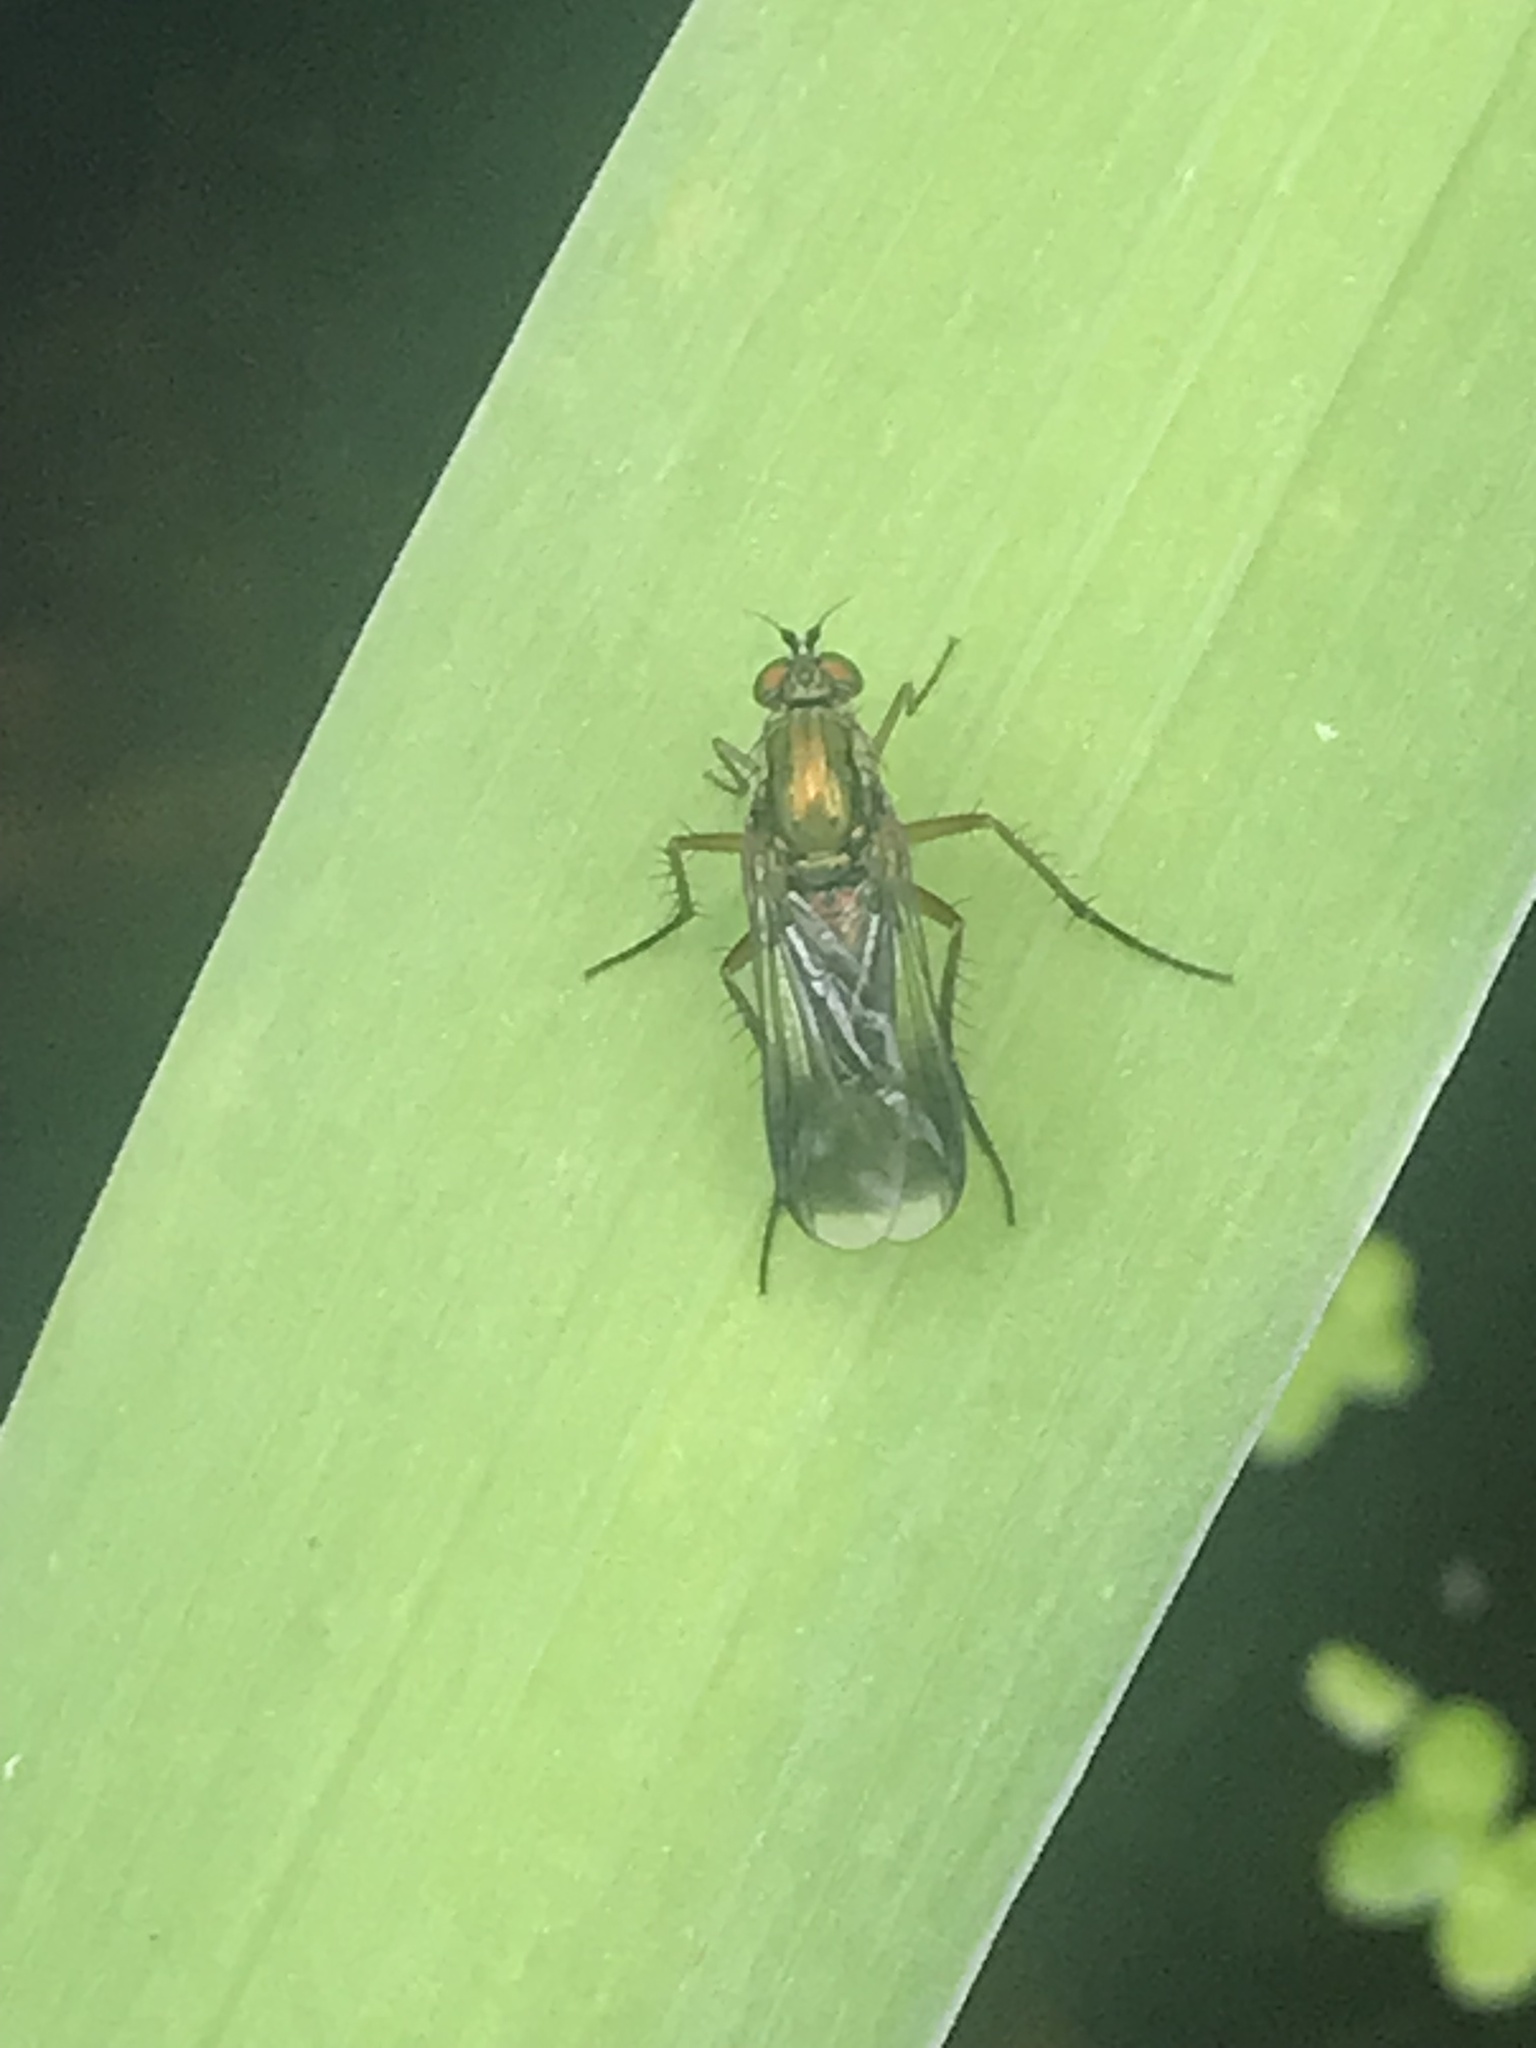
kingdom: Animalia
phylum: Arthropoda
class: Insecta
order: Diptera
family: Dolichopodidae
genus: Poecilobothrus
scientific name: Poecilobothrus nobilitatus
